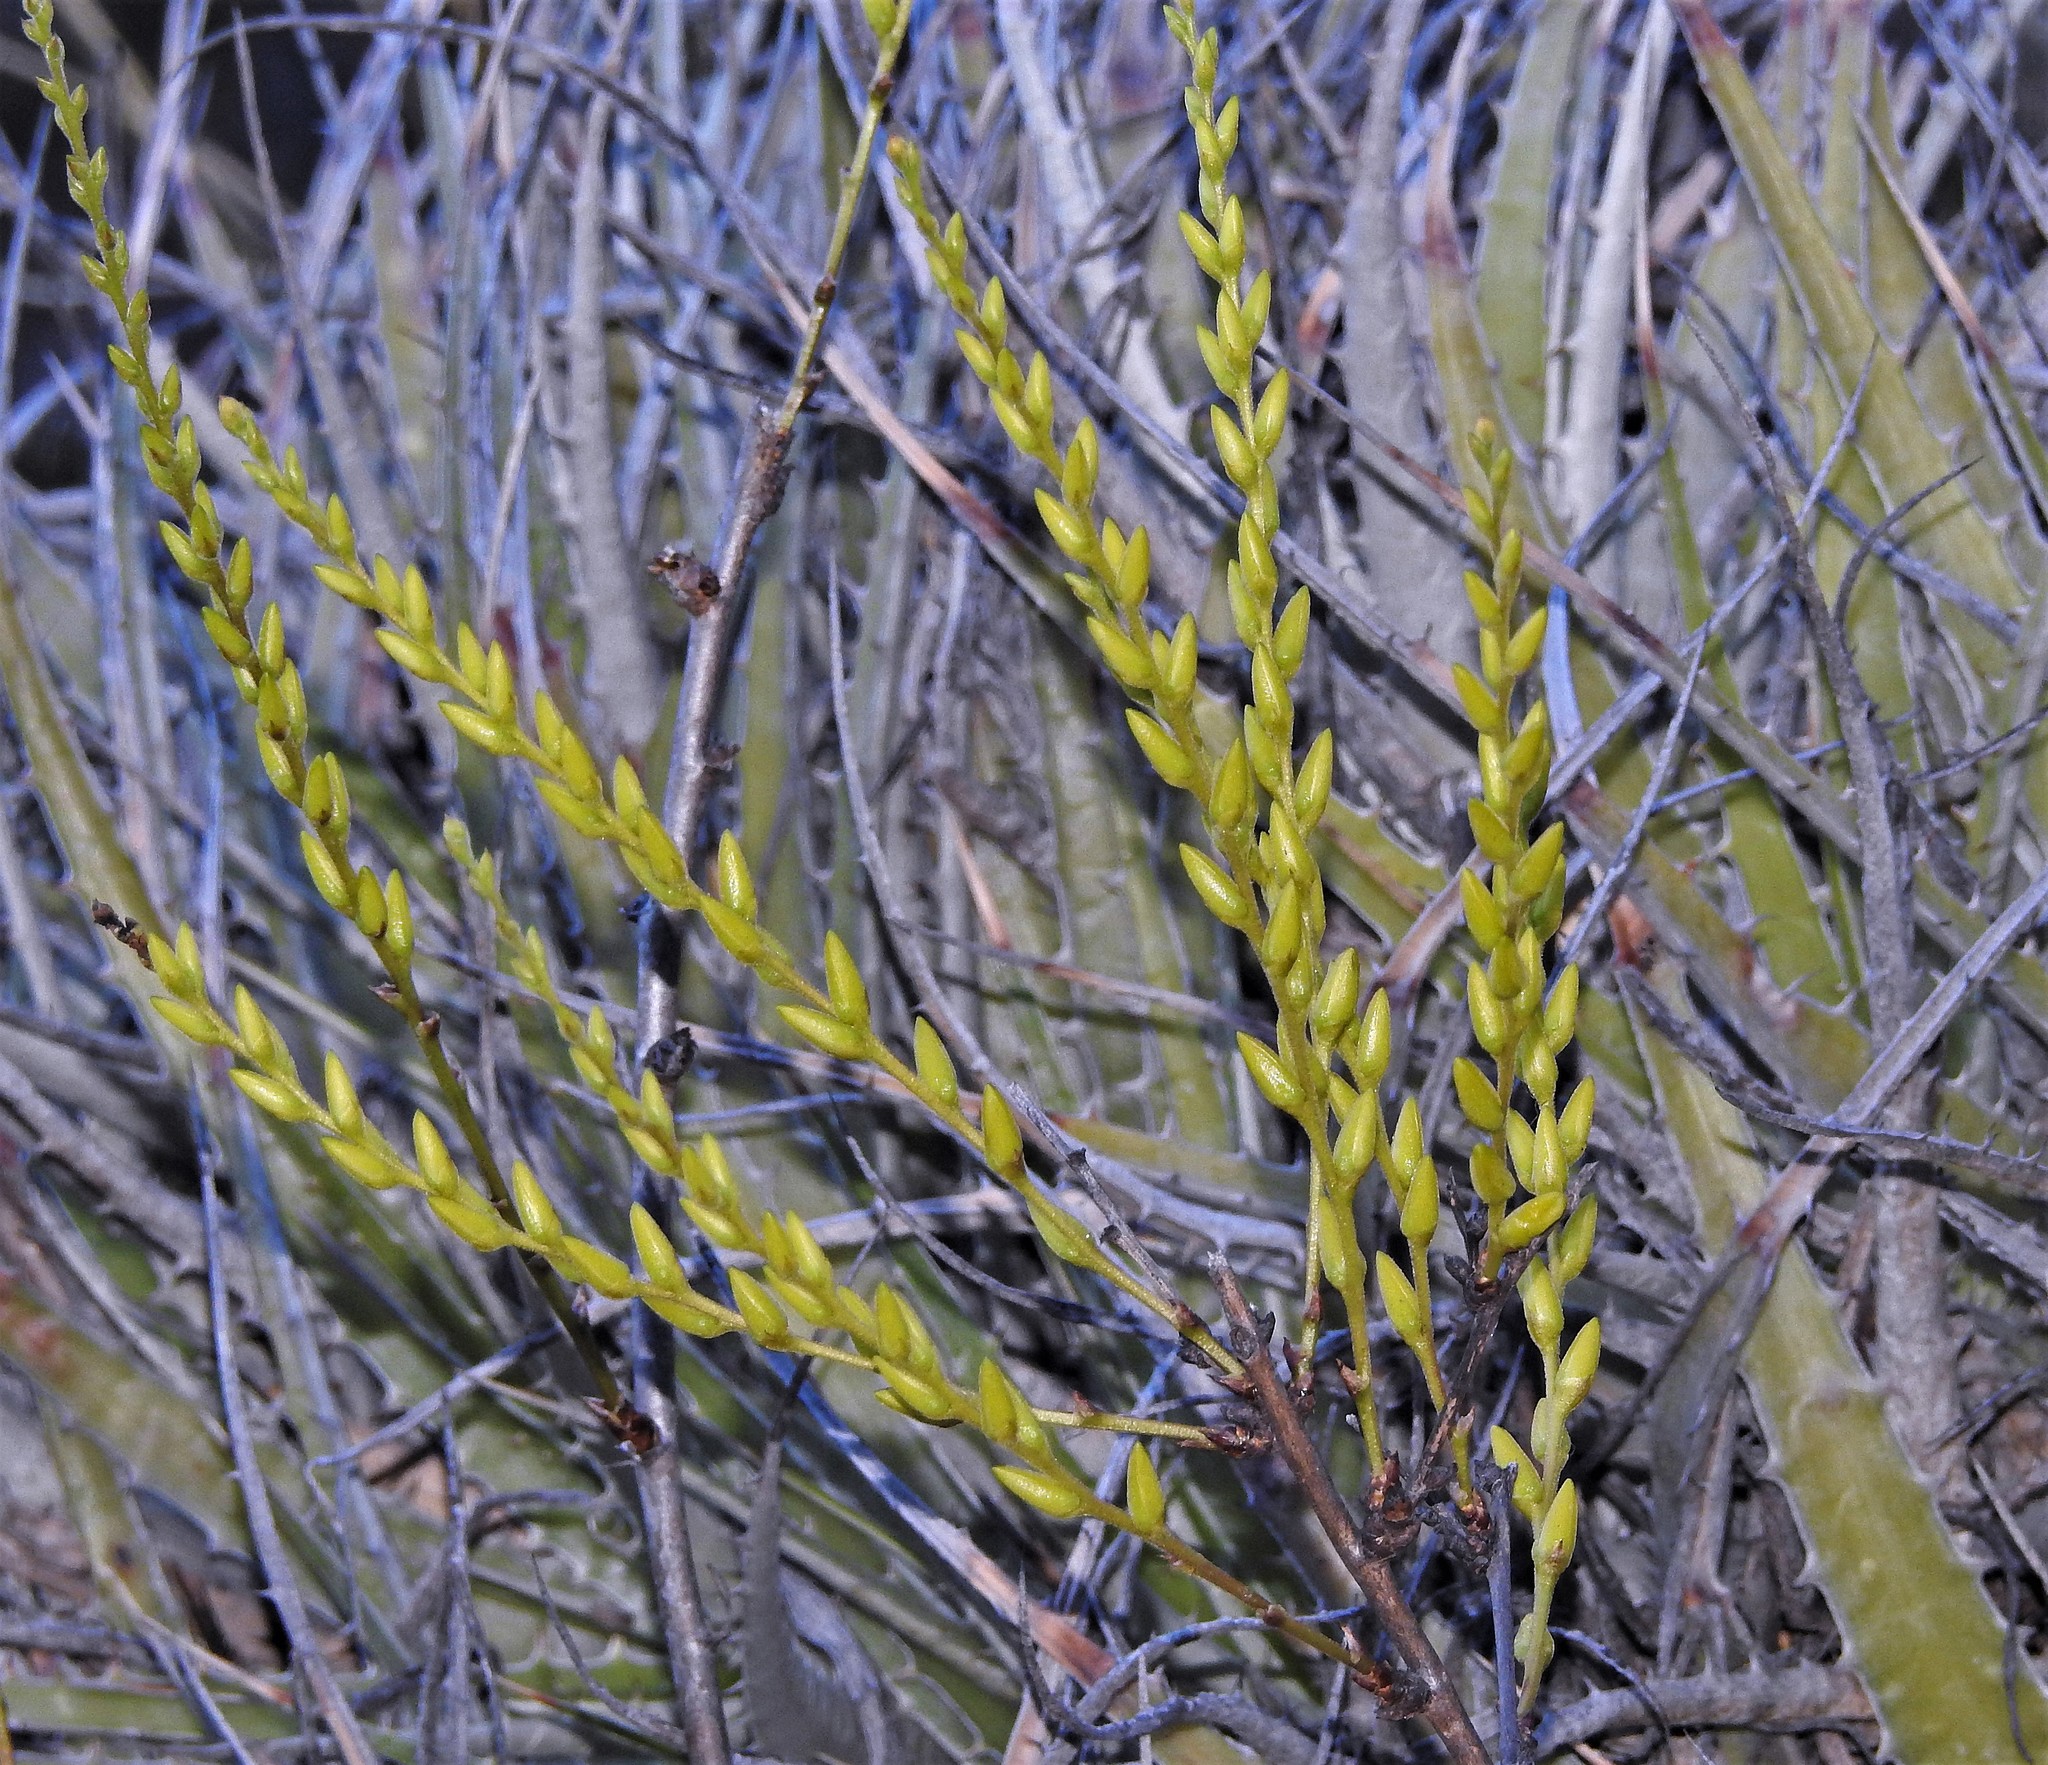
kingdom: Plantae
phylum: Tracheophyta
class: Liliopsida
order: Poales
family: Bromeliaceae
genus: Deuterocohnia
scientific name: Deuterocohnia longipetala
